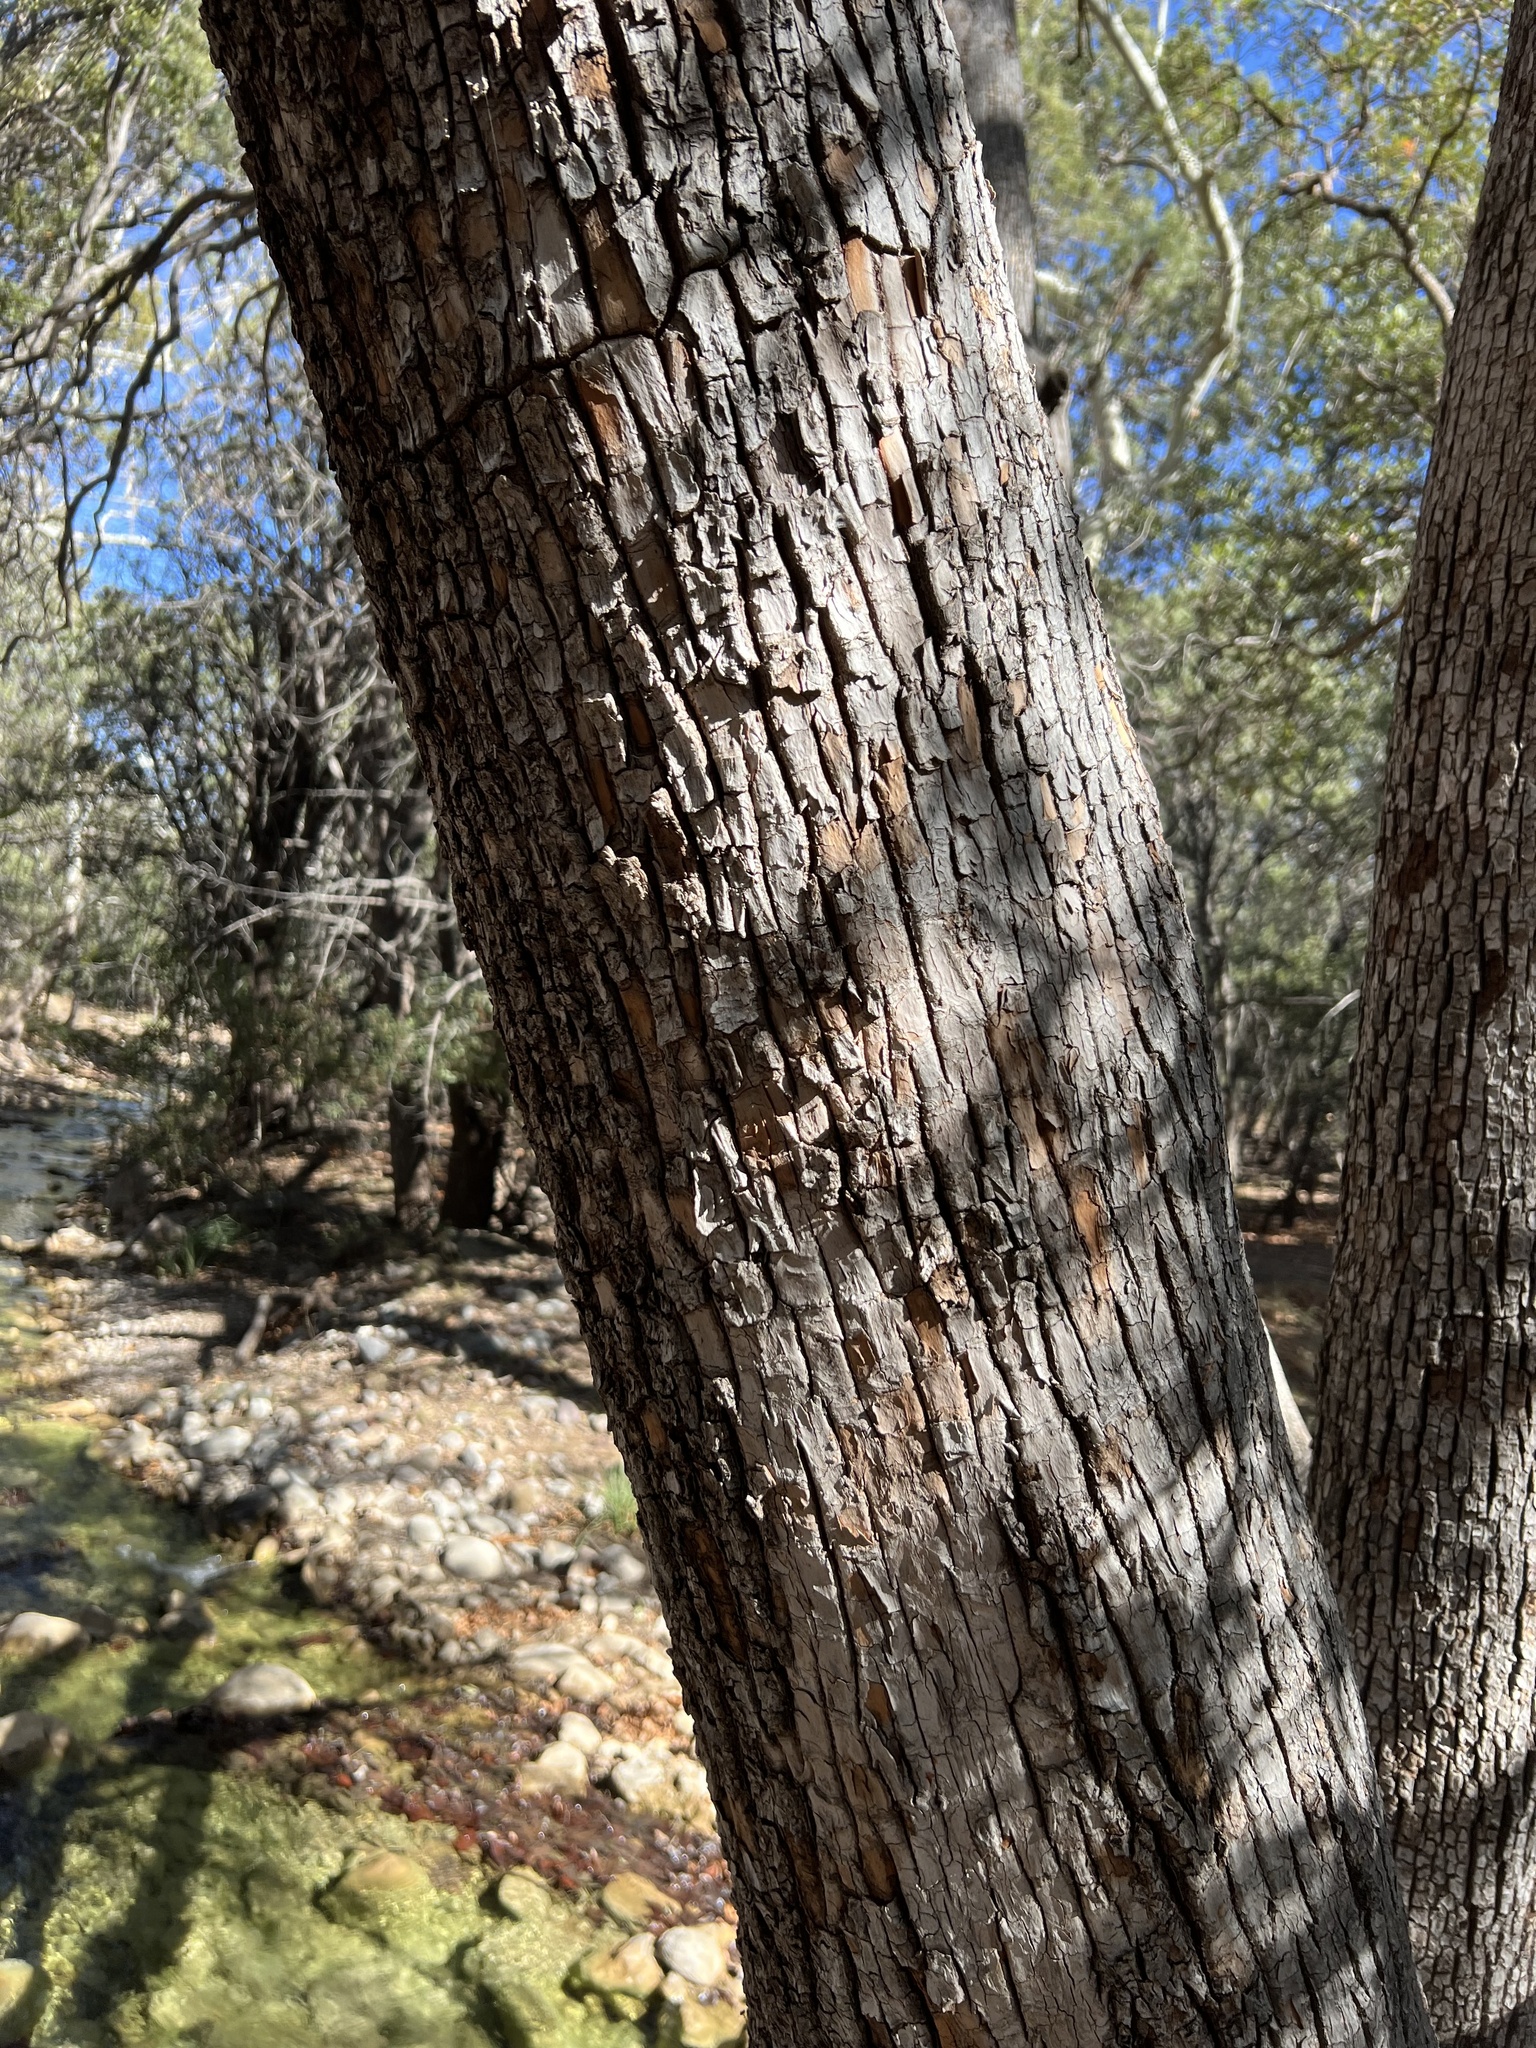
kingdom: Plantae
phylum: Tracheophyta
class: Magnoliopsida
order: Ericales
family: Ericaceae
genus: Arbutus
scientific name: Arbutus arizonica
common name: Arizona madrone
